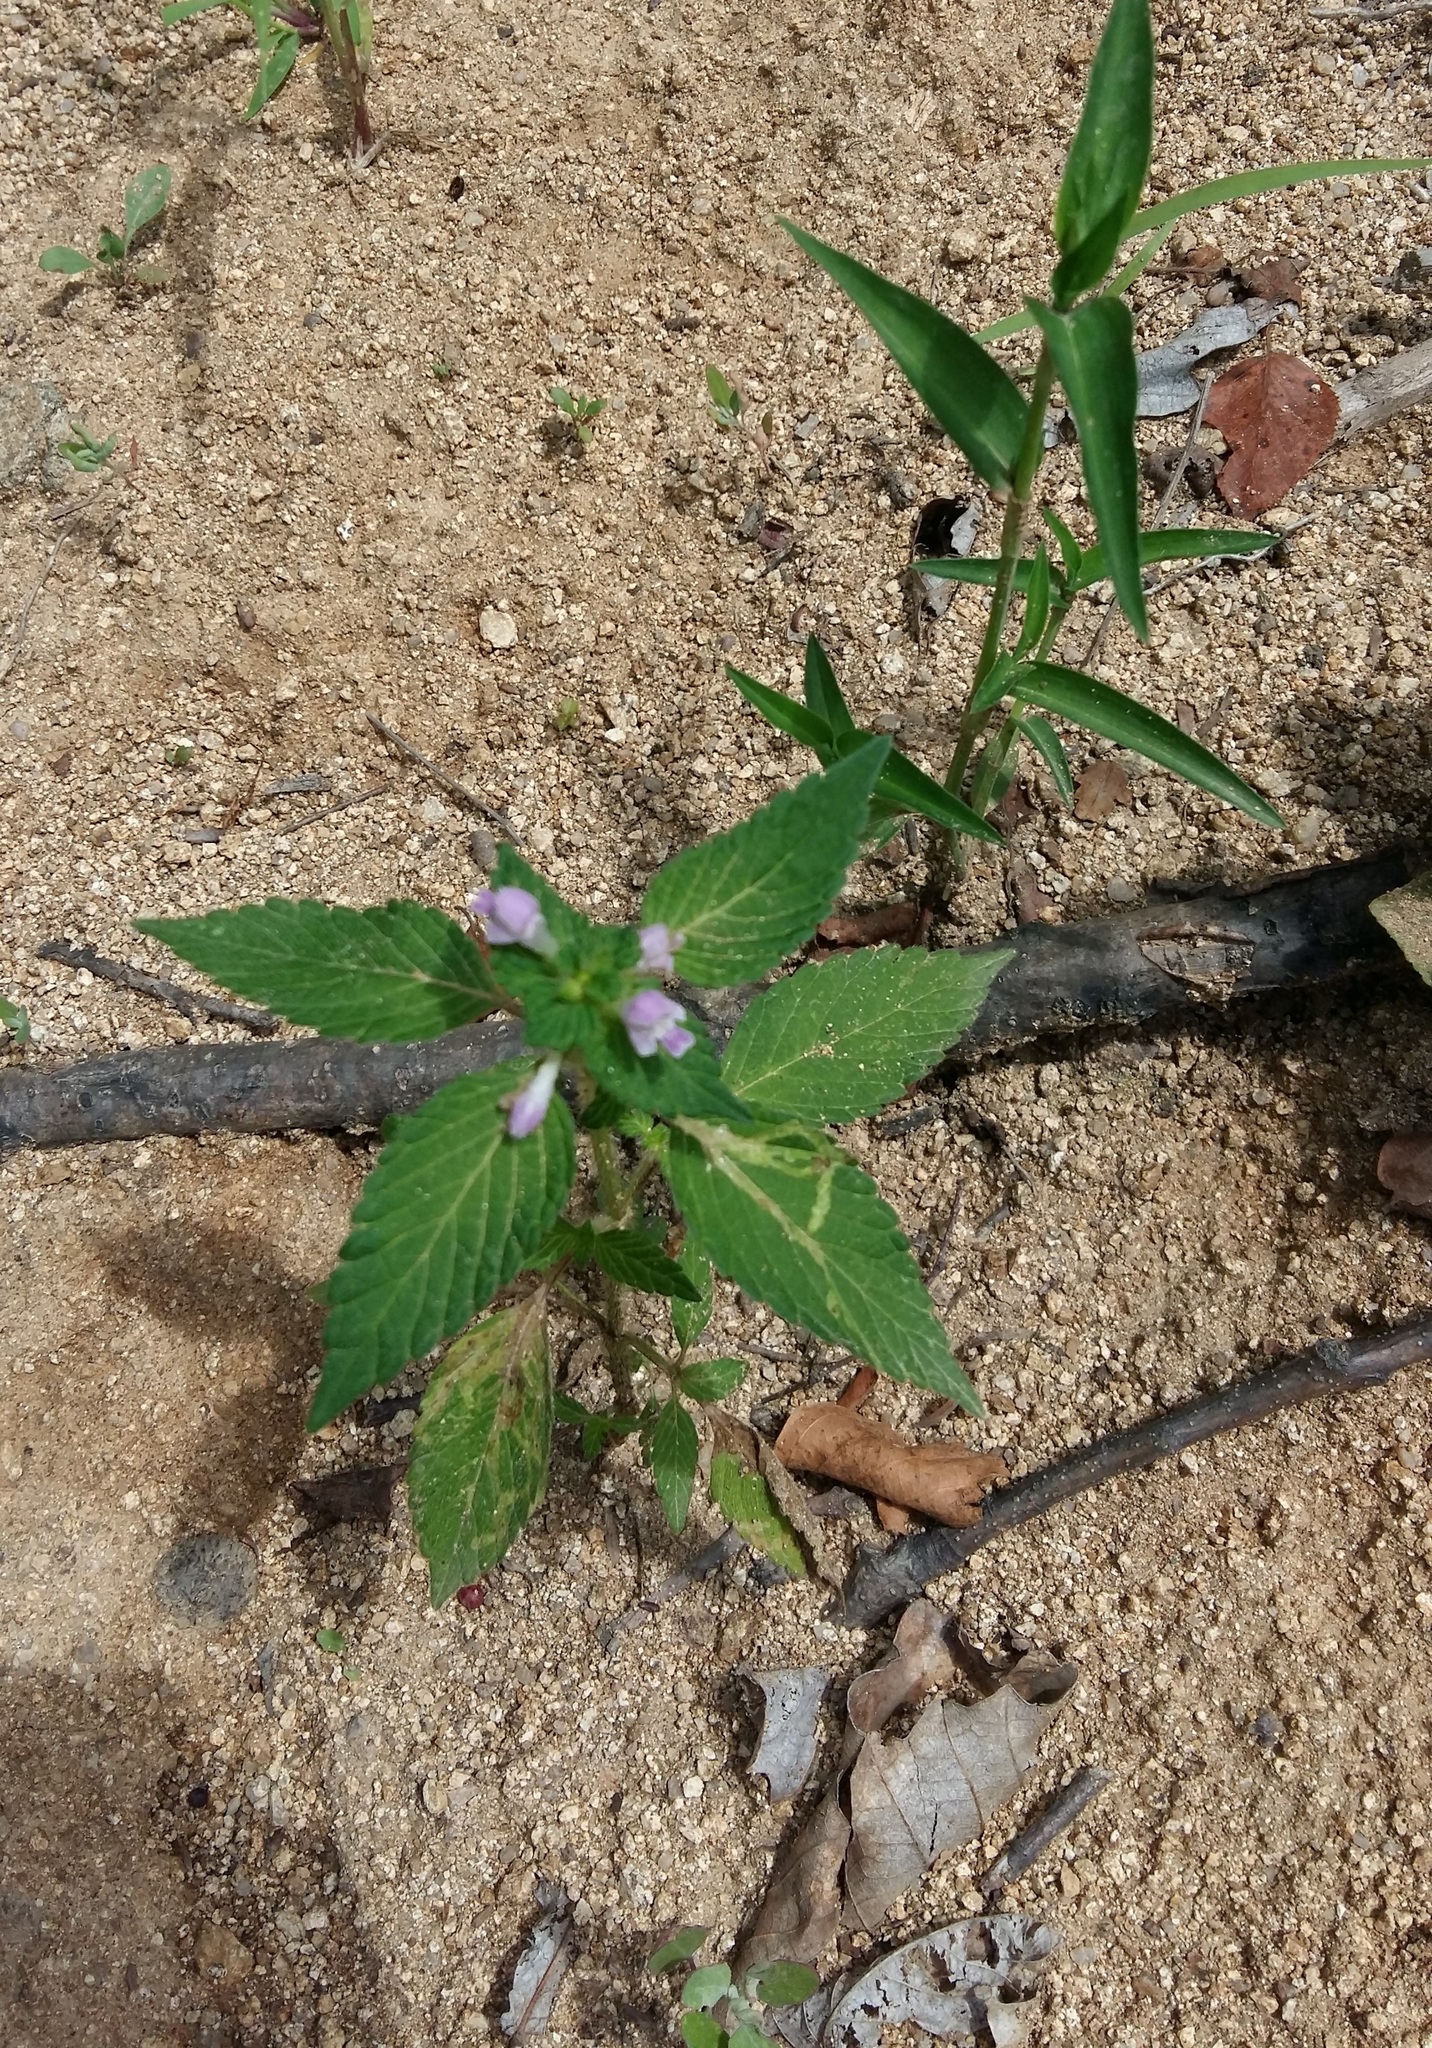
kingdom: Plantae
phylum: Tracheophyta
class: Magnoliopsida
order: Lamiales
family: Lamiaceae
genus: Galeopsis
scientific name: Galeopsis bifida
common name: Bifid hemp-nettle
